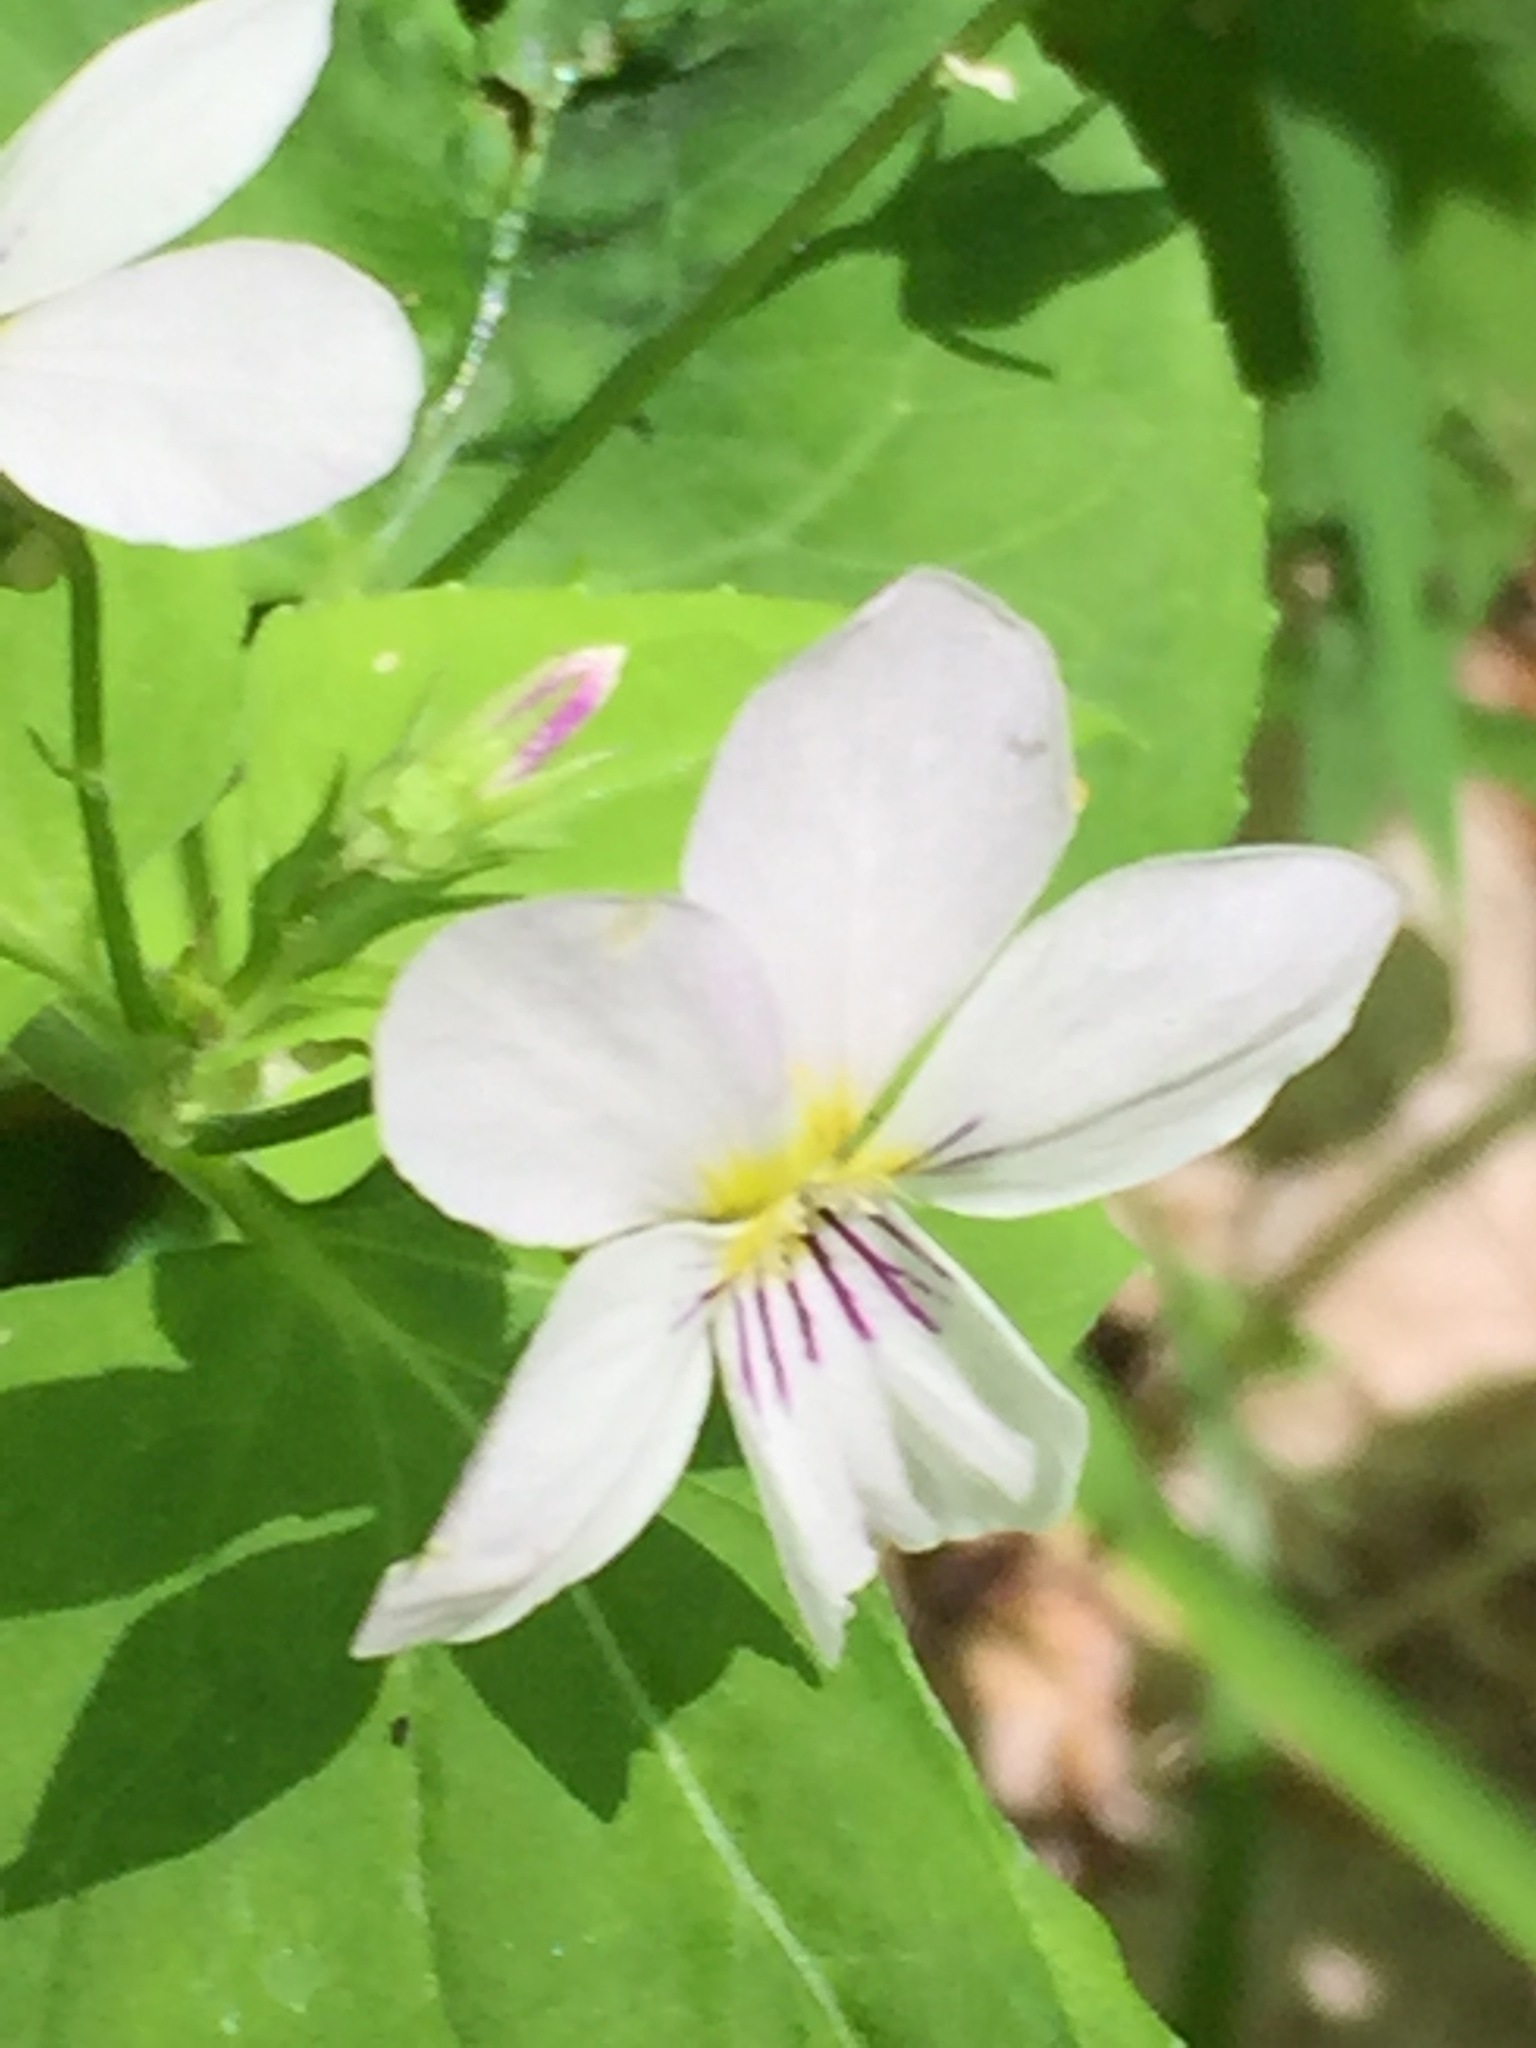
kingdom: Plantae
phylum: Tracheophyta
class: Magnoliopsida
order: Malpighiales
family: Violaceae
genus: Viola
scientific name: Viola canadensis
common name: Canada violet
